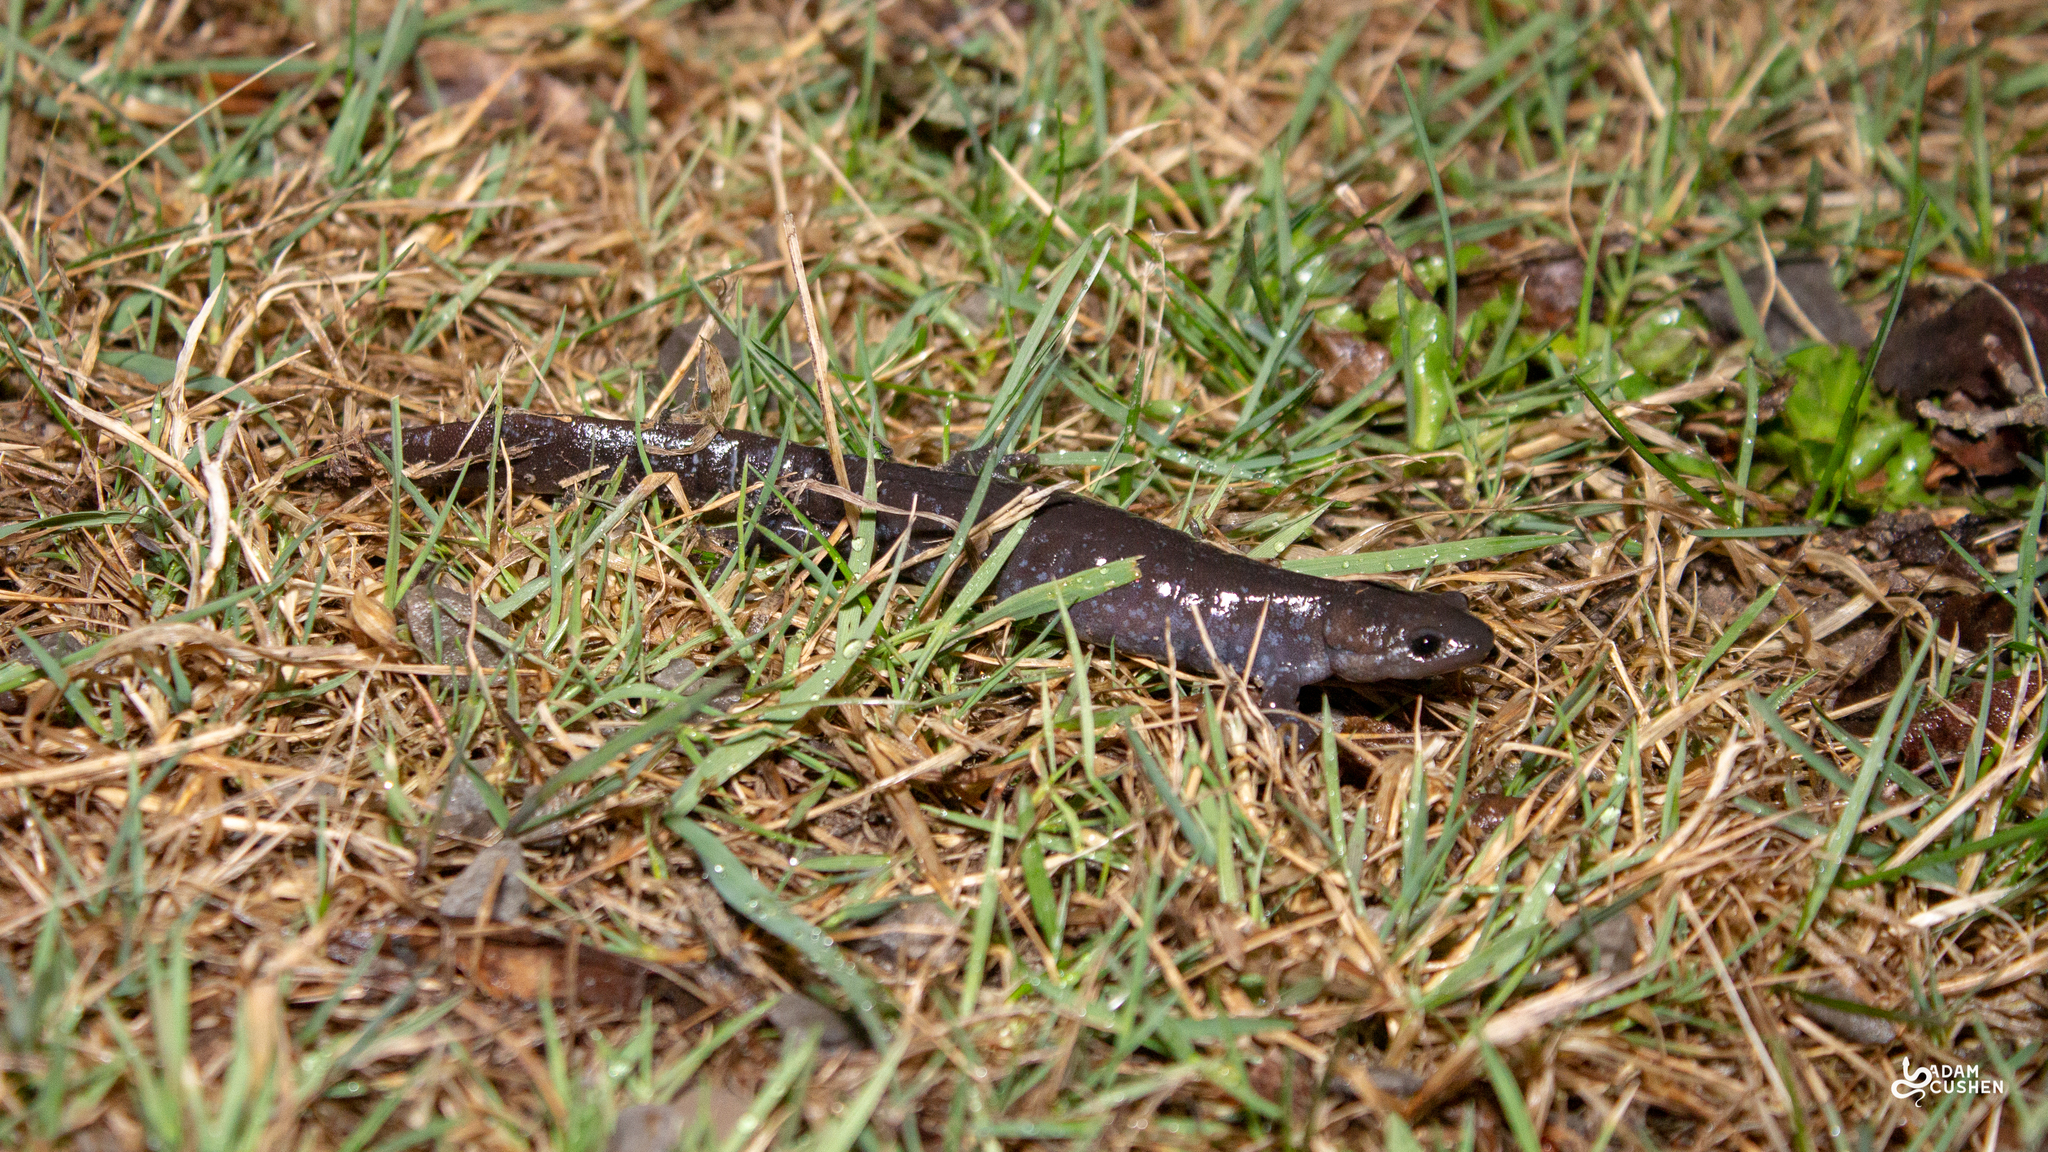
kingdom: Animalia
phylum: Chordata
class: Amphibia
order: Caudata
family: Ambystomatidae
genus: Ambystoma
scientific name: Ambystoma laterale
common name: Blue-spotted salamander
